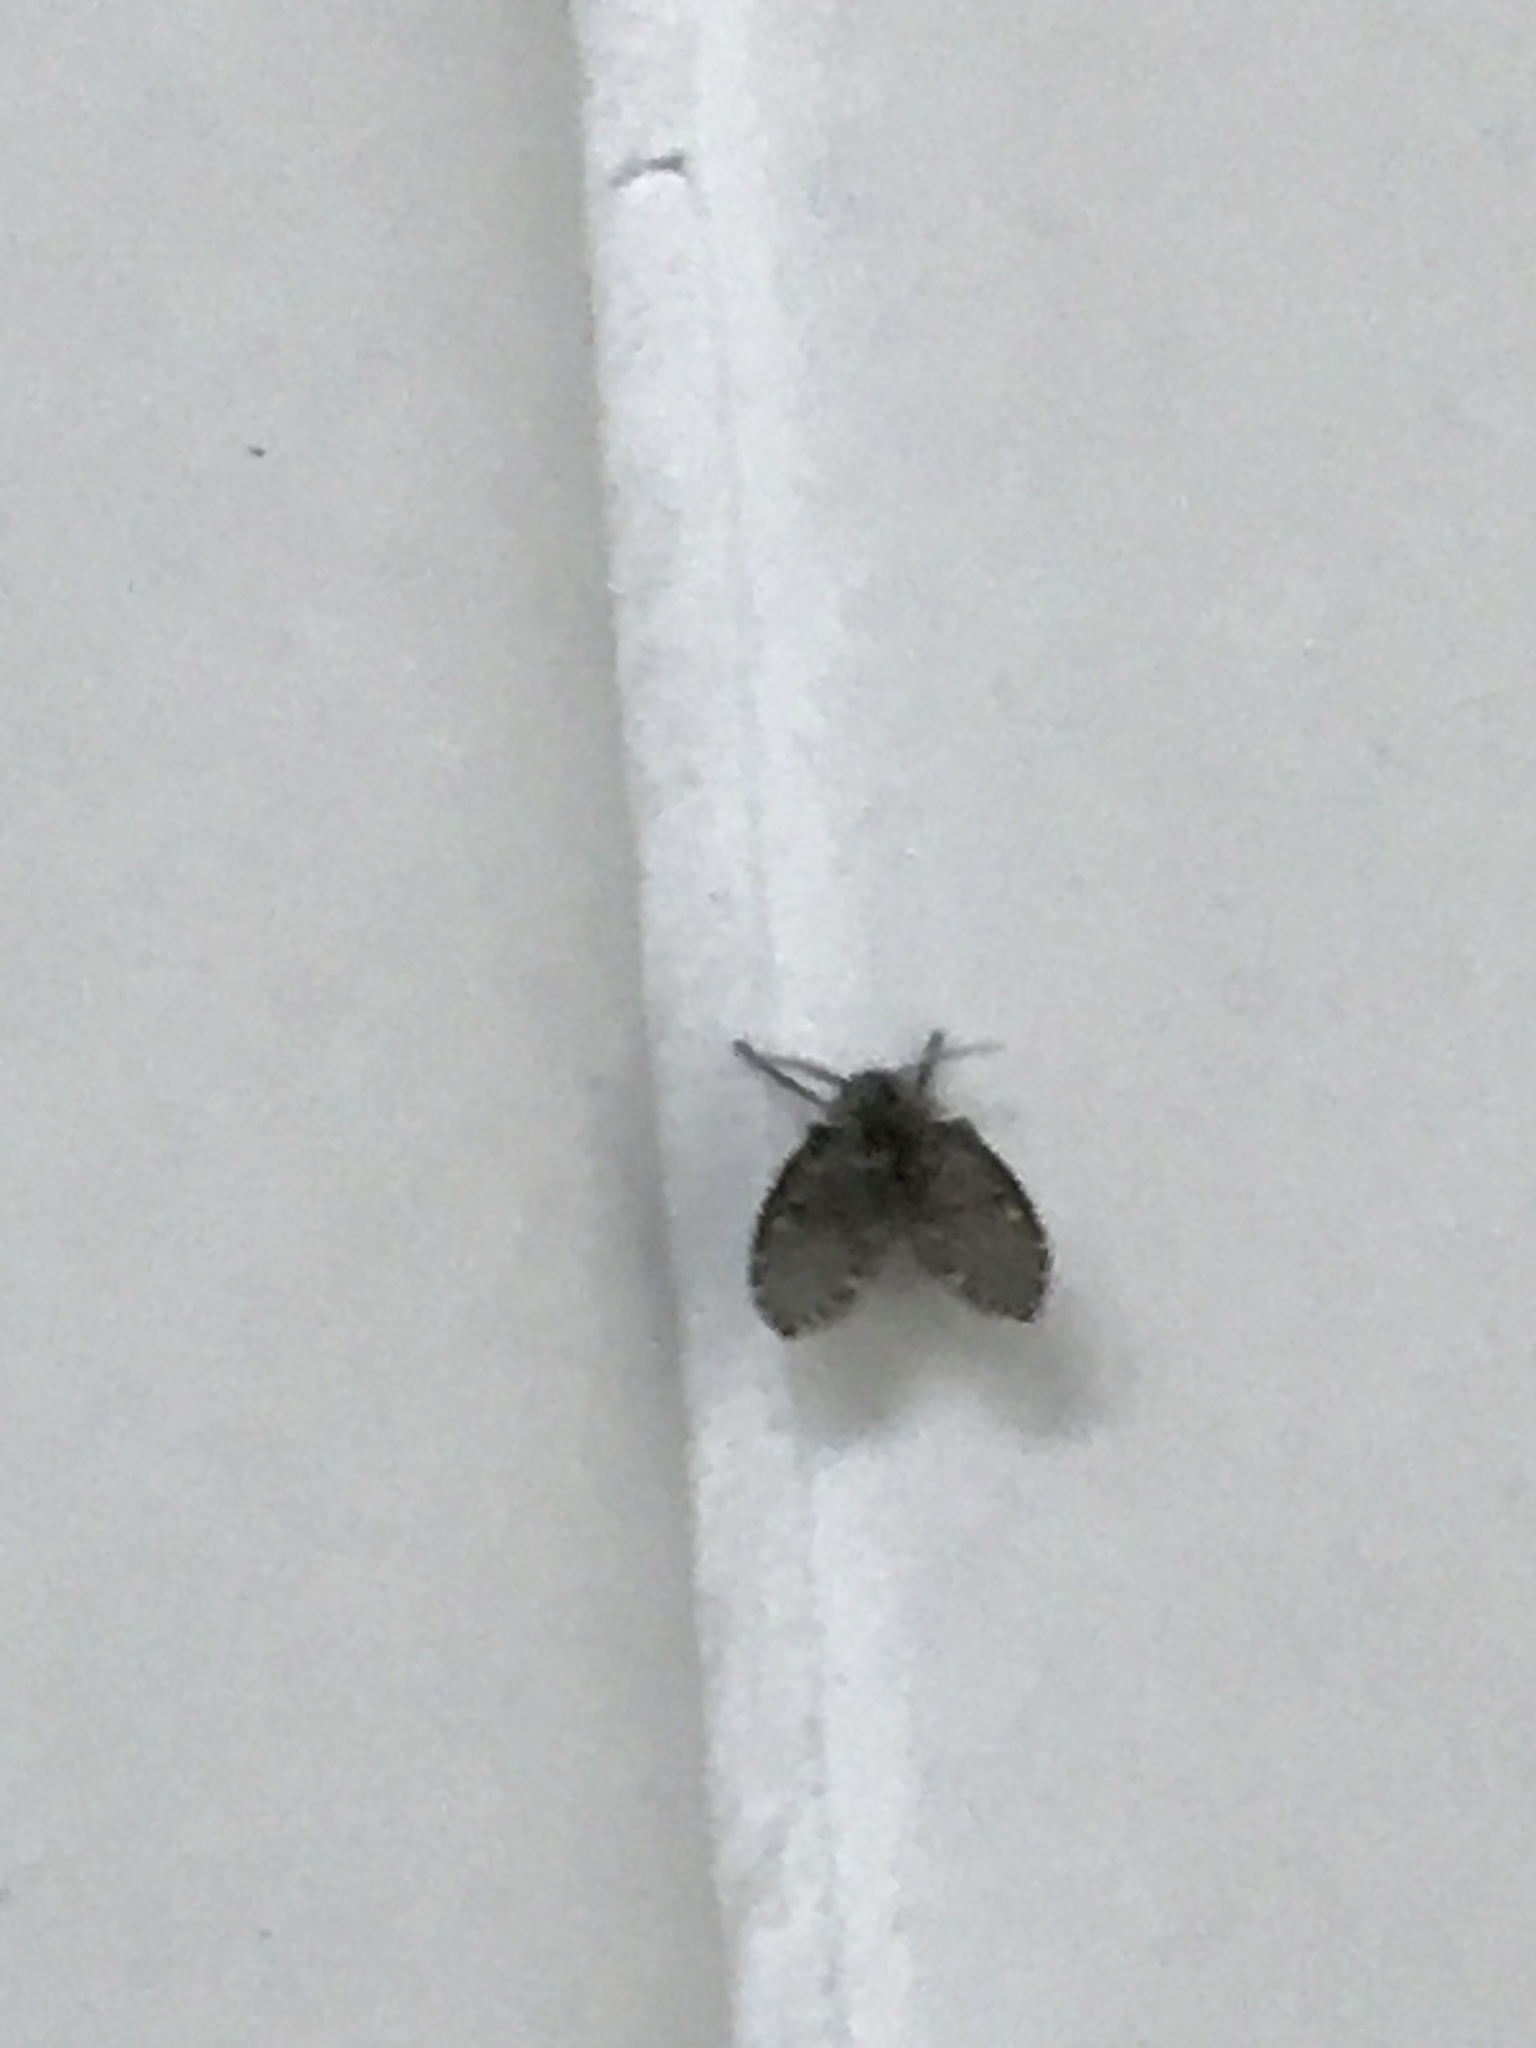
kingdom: Animalia
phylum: Arthropoda
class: Insecta
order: Diptera
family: Psychodidae
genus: Clogmia
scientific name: Clogmia albipunctatus
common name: White-spotted moth fly
